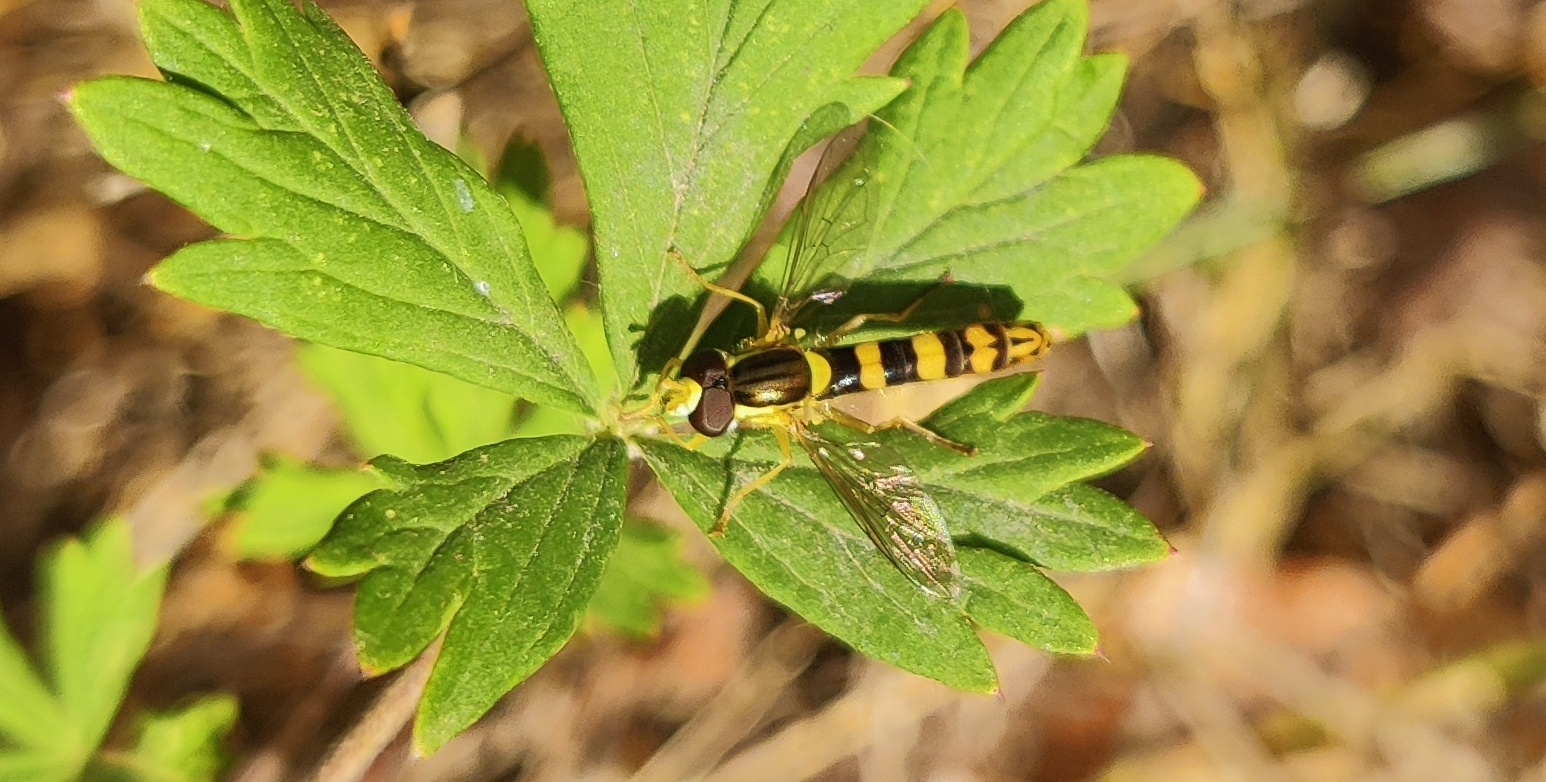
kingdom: Animalia
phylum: Arthropoda
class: Insecta
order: Diptera
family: Syrphidae
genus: Sphaerophoria
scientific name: Sphaerophoria scripta
